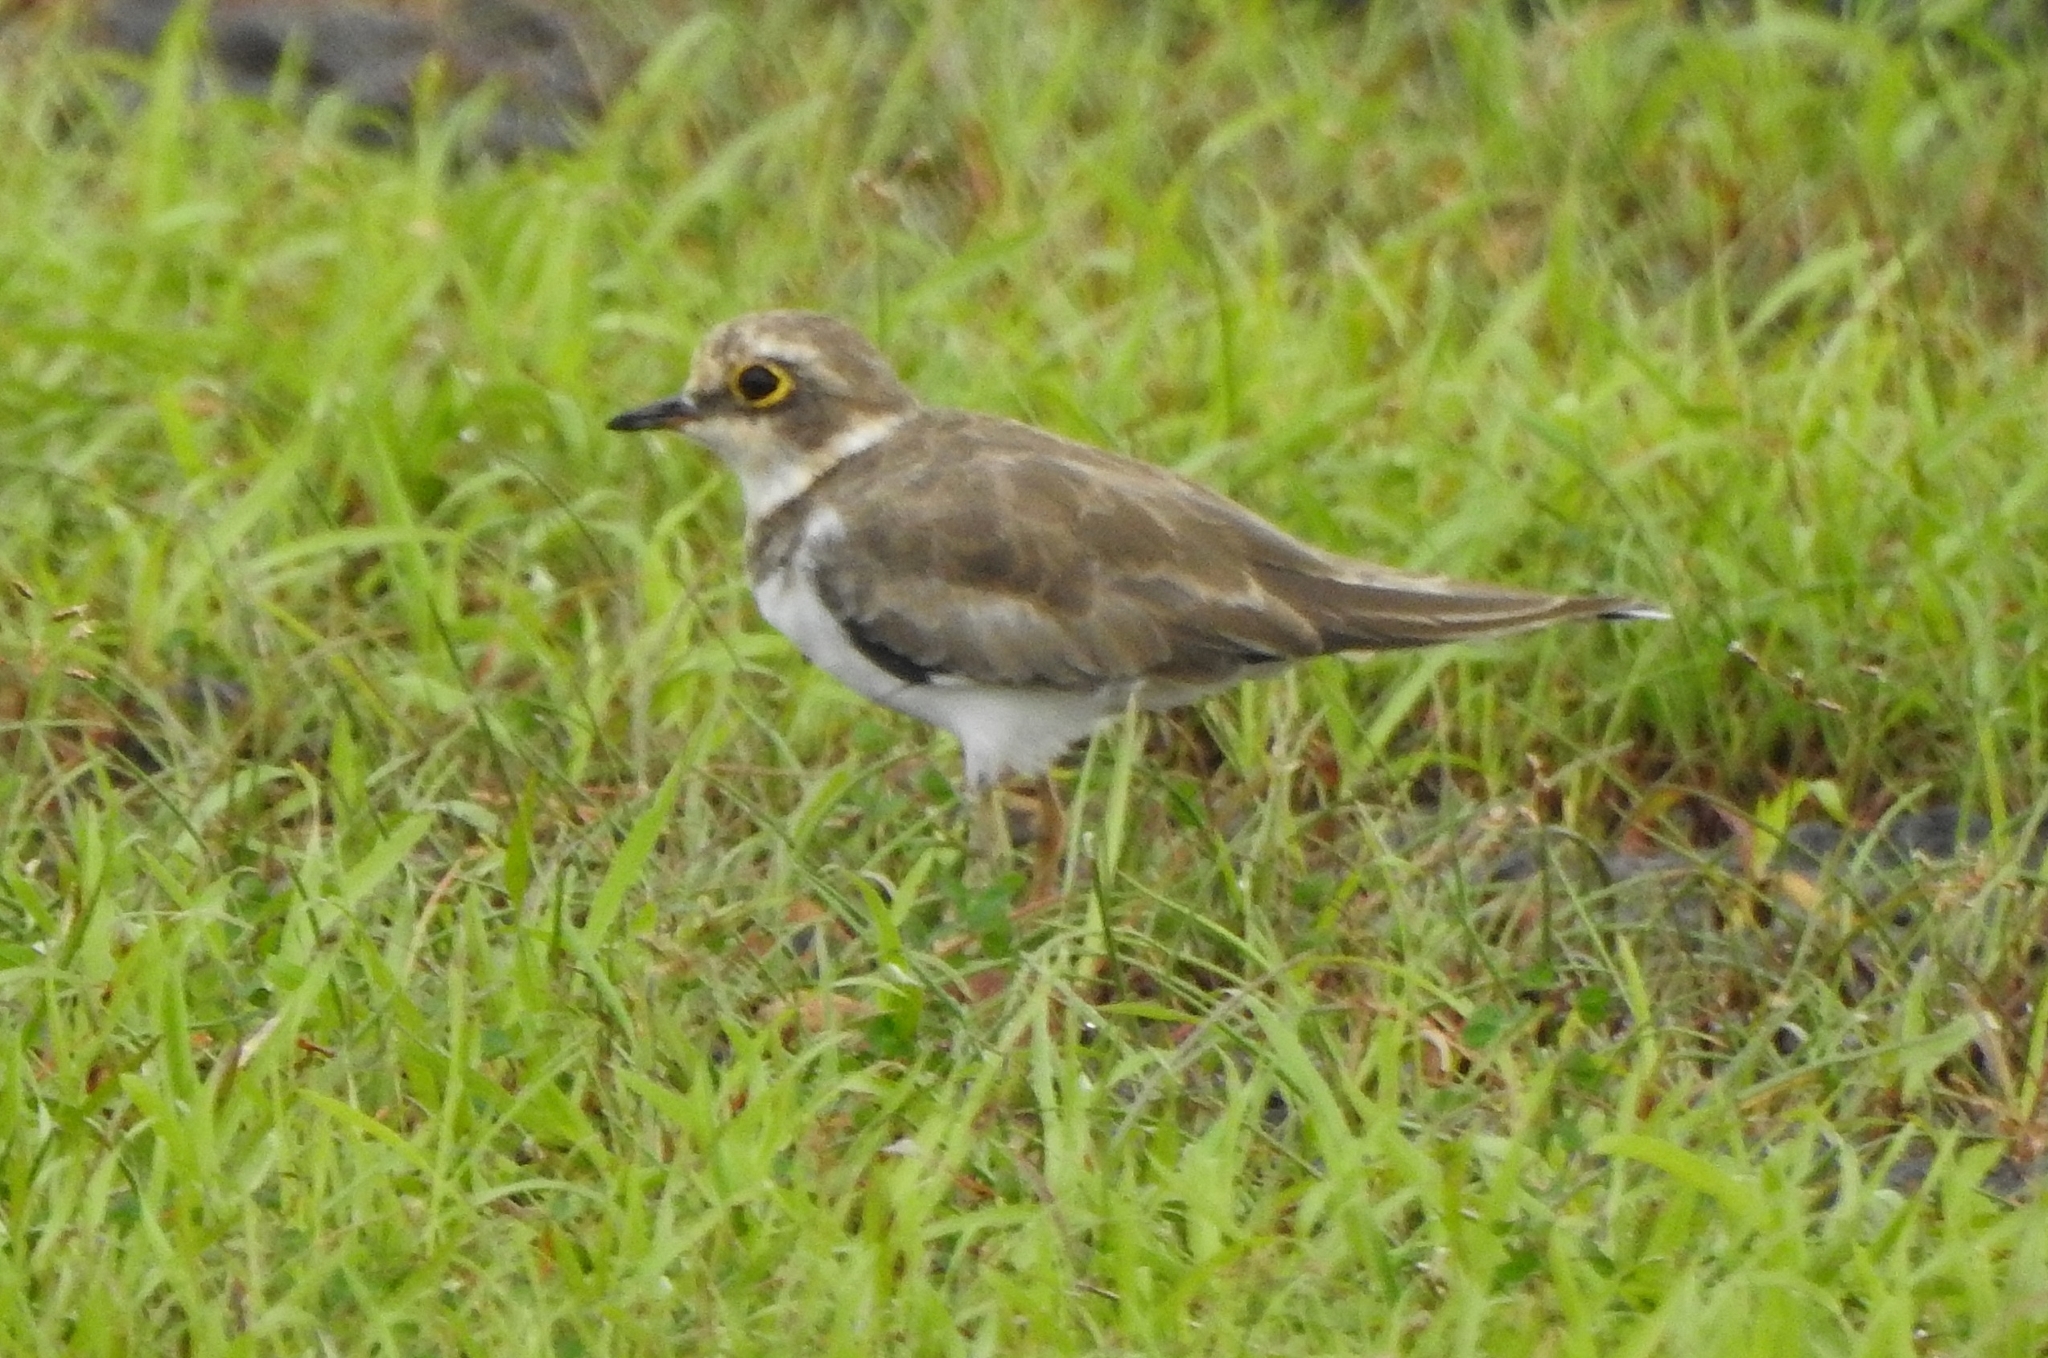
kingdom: Animalia
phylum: Chordata
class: Aves
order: Charadriiformes
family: Charadriidae
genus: Charadrius
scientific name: Charadrius dubius
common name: Little ringed plover
